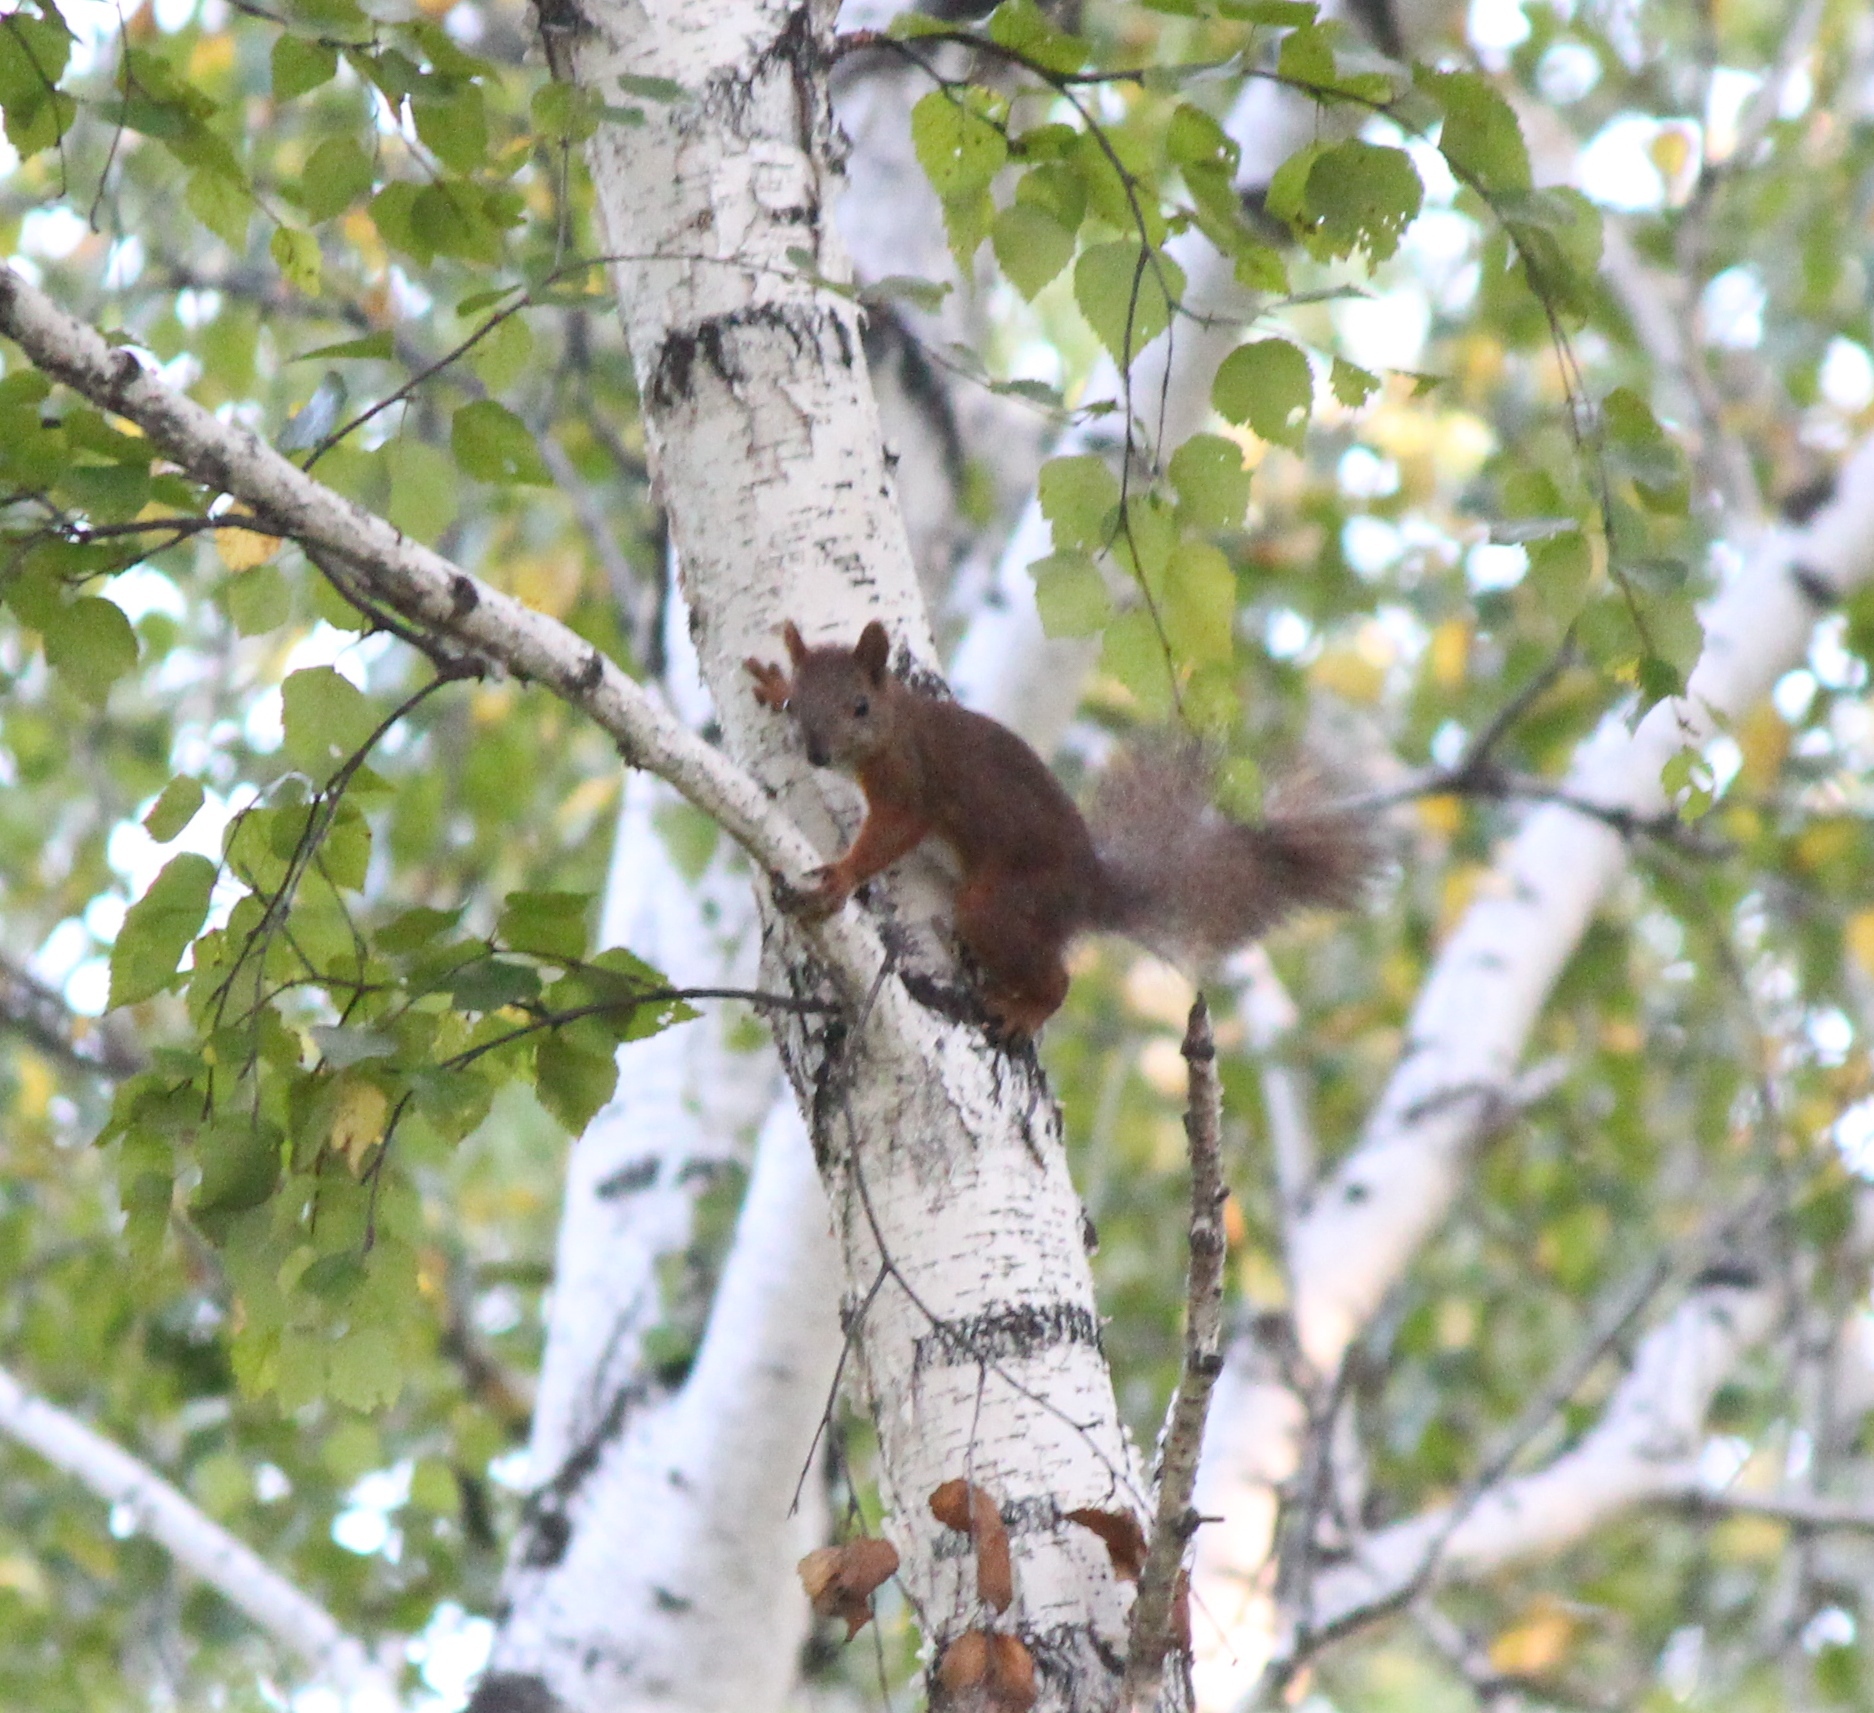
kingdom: Animalia
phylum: Chordata
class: Mammalia
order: Rodentia
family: Sciuridae
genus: Sciurus
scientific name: Sciurus vulgaris
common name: Eurasian red squirrel
